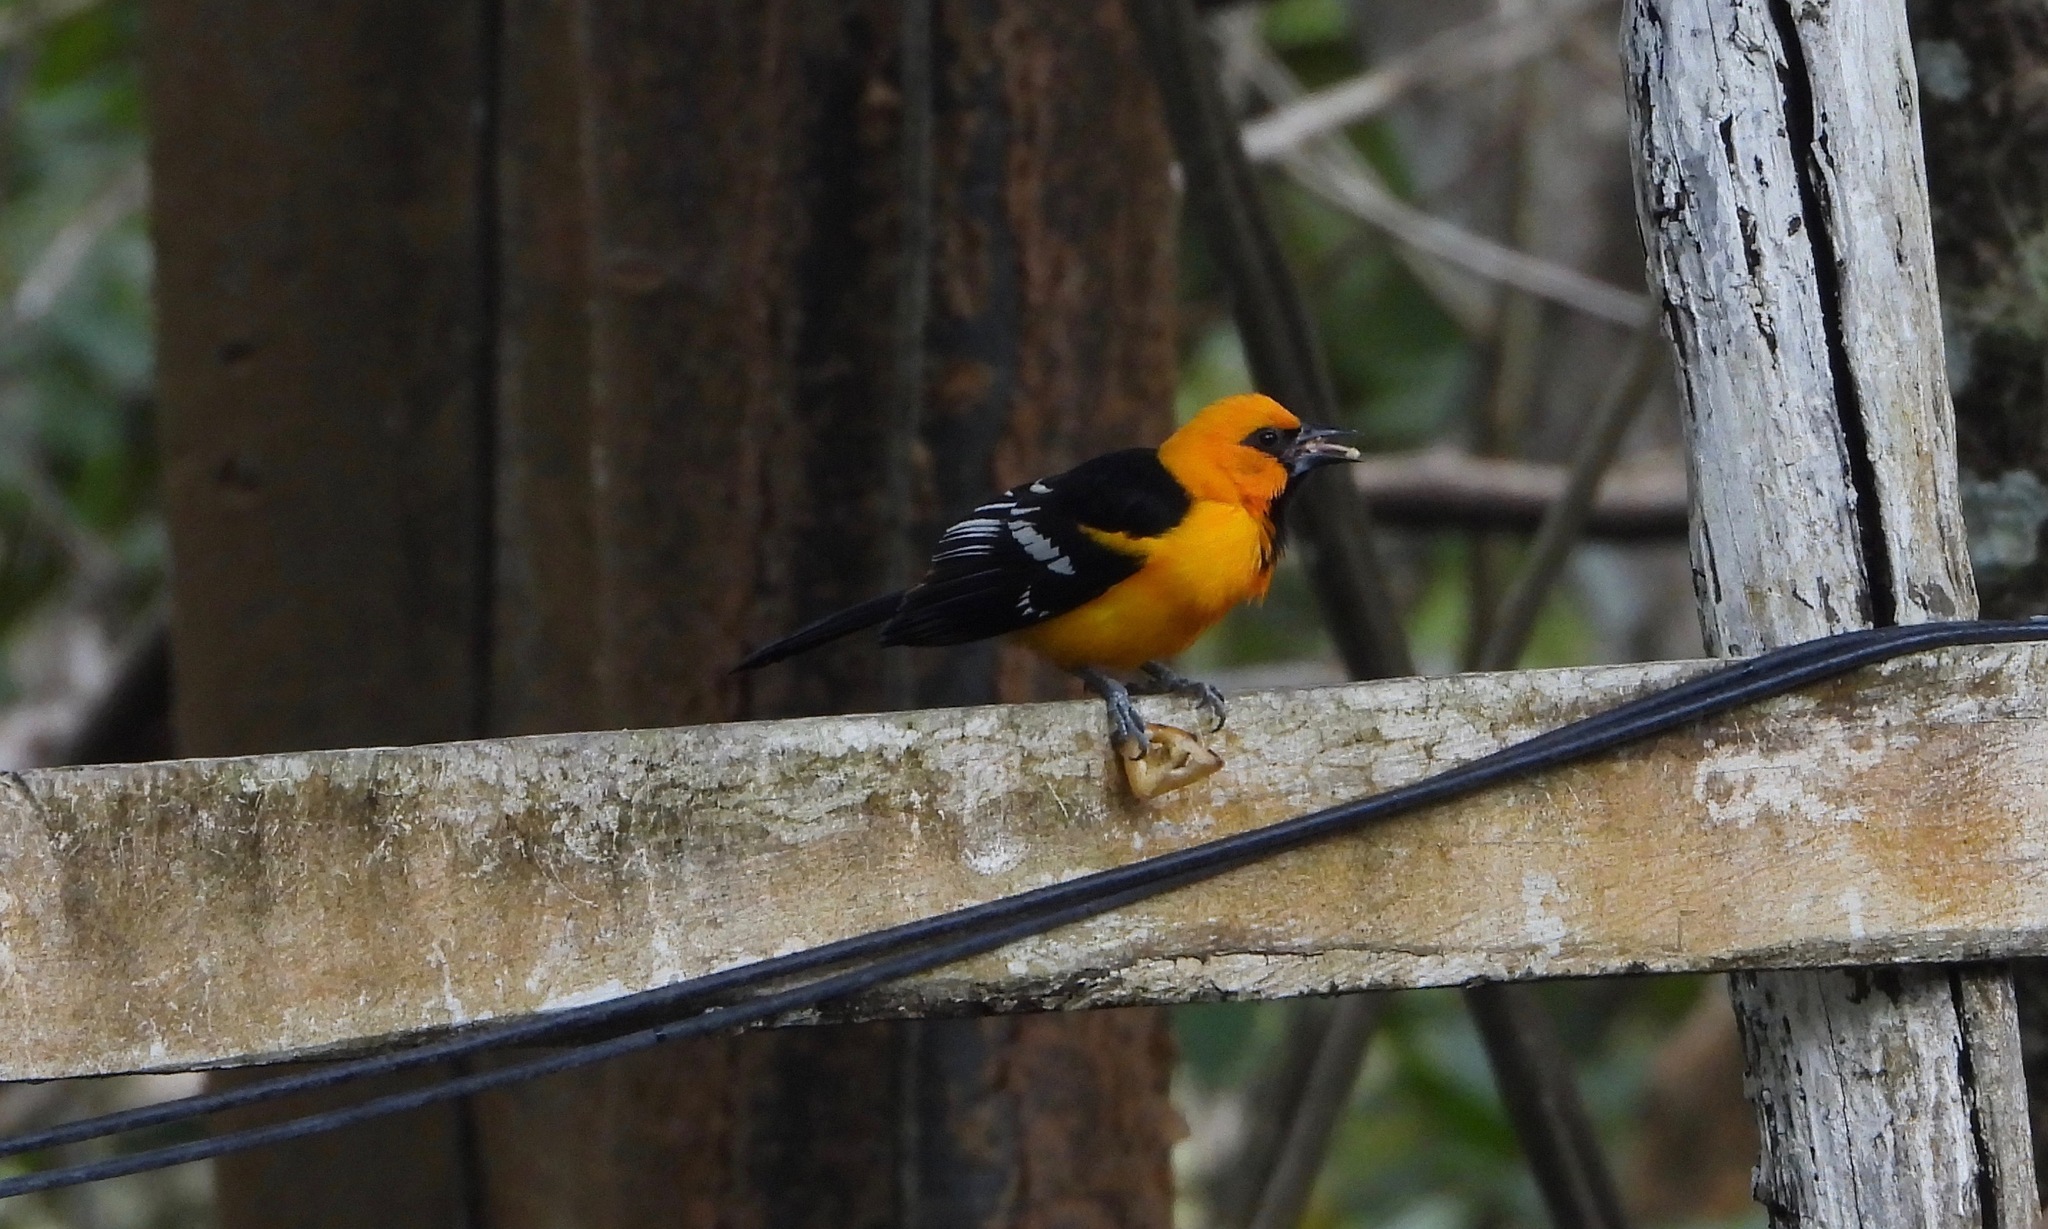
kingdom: Animalia
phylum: Chordata
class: Aves
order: Passeriformes
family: Icteridae
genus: Icterus
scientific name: Icterus gularis
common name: Altamira oriole
